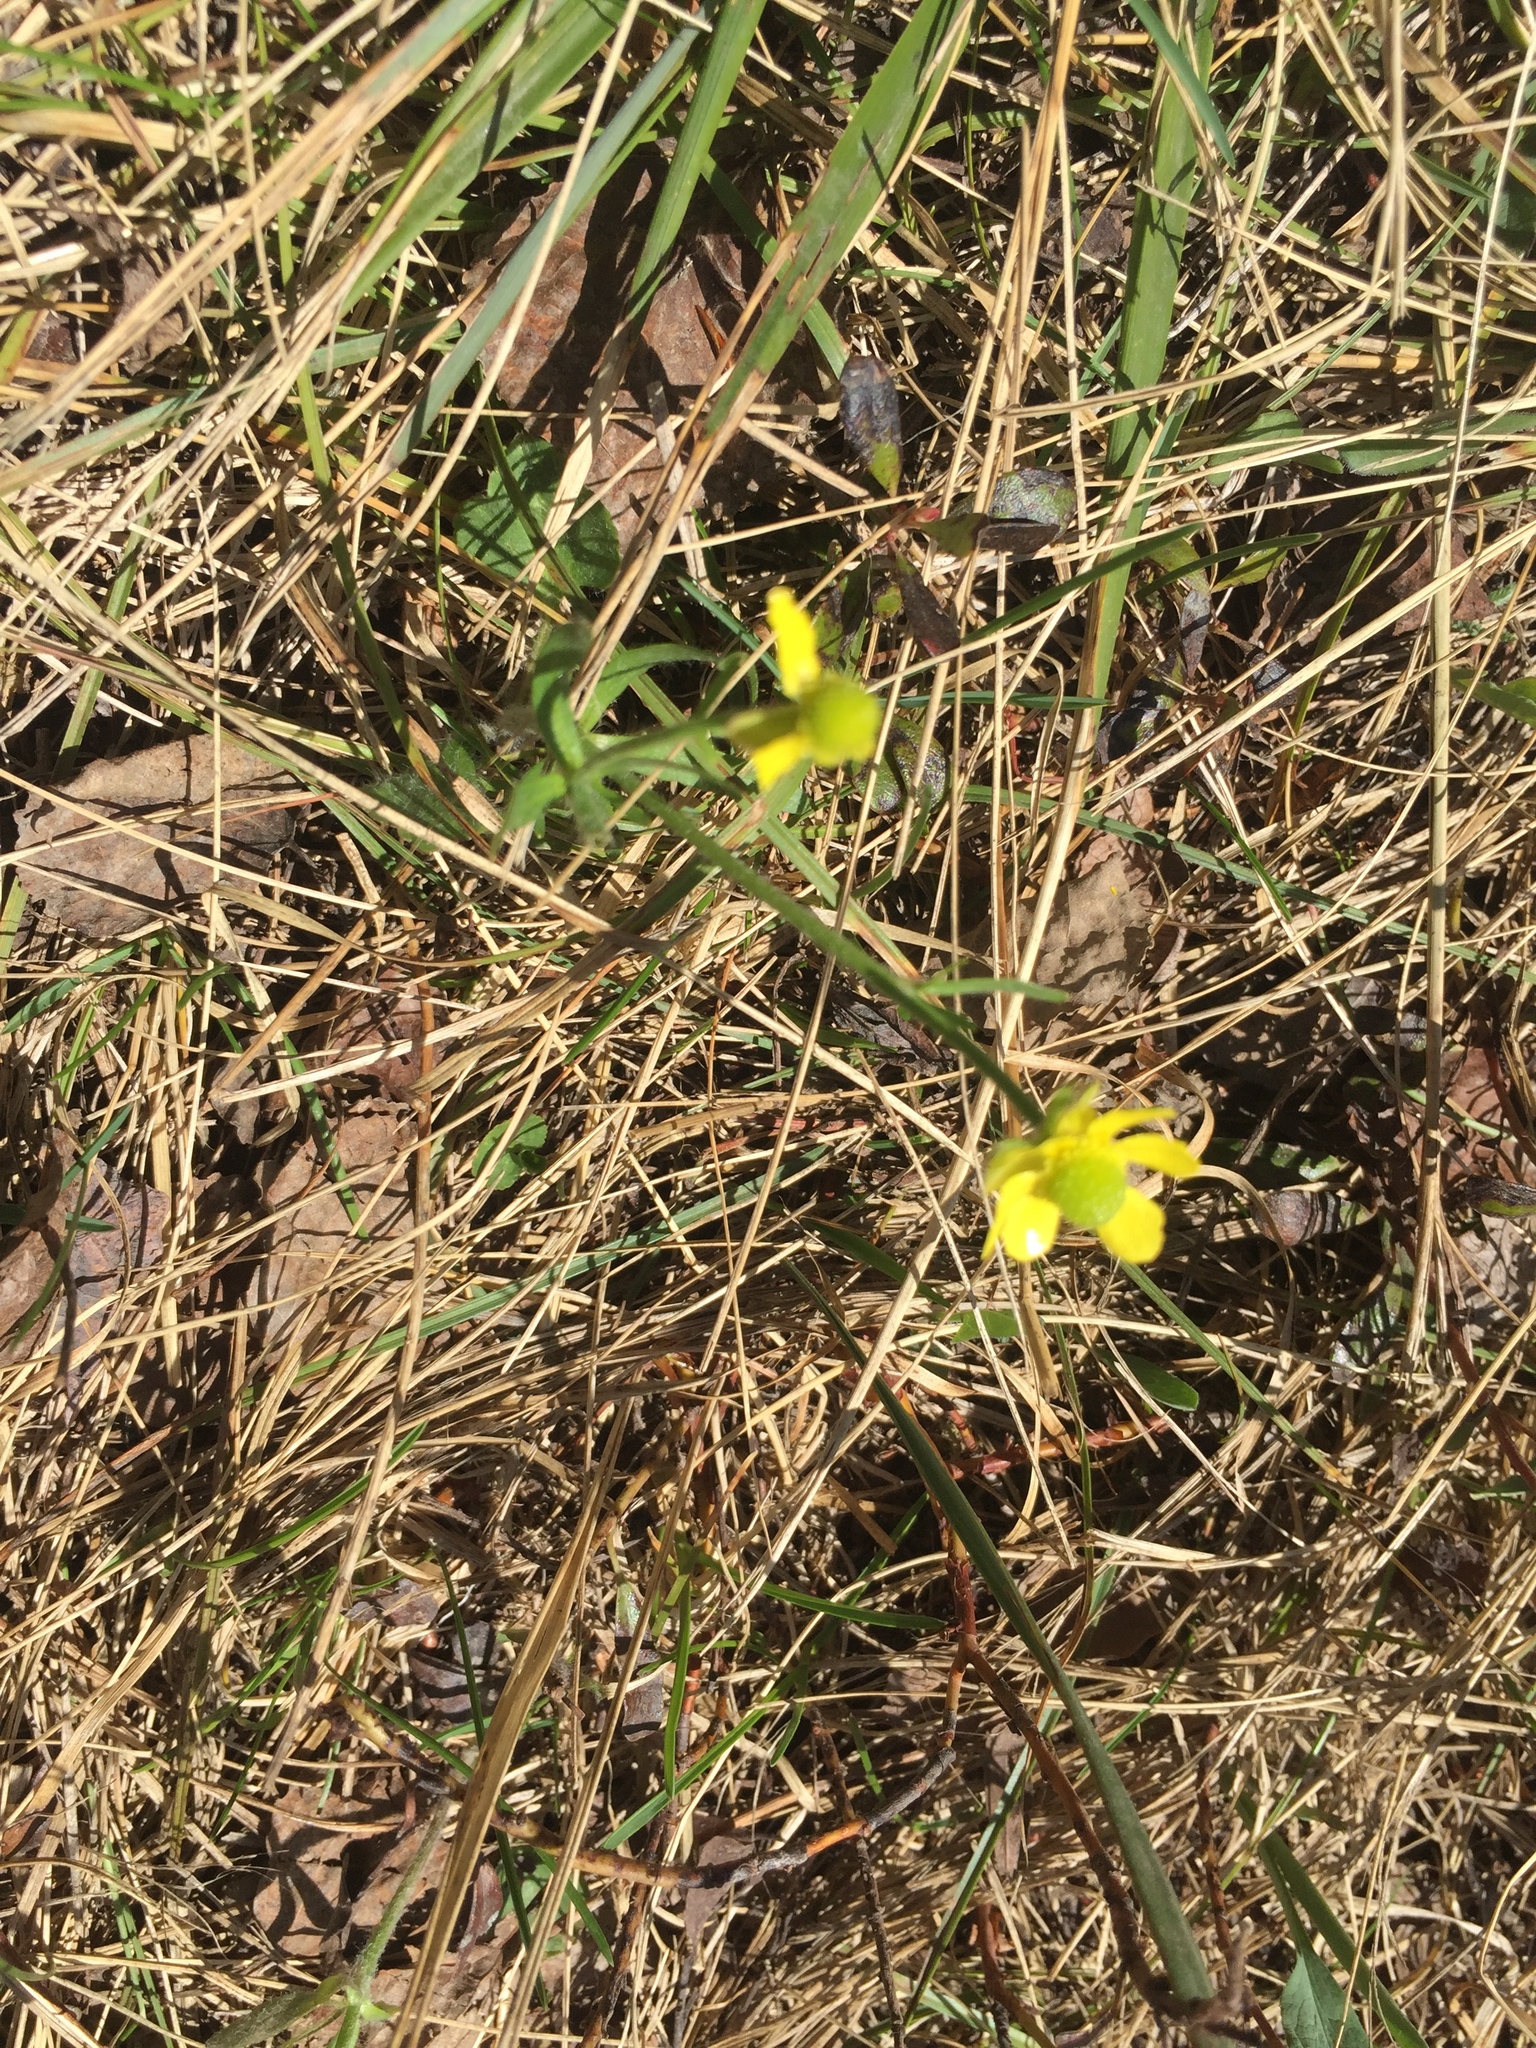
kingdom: Plantae
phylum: Tracheophyta
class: Magnoliopsida
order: Ranunculales
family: Ranunculaceae
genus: Ranunculus
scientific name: Ranunculus rhomboideus
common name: Prairie buttercup
